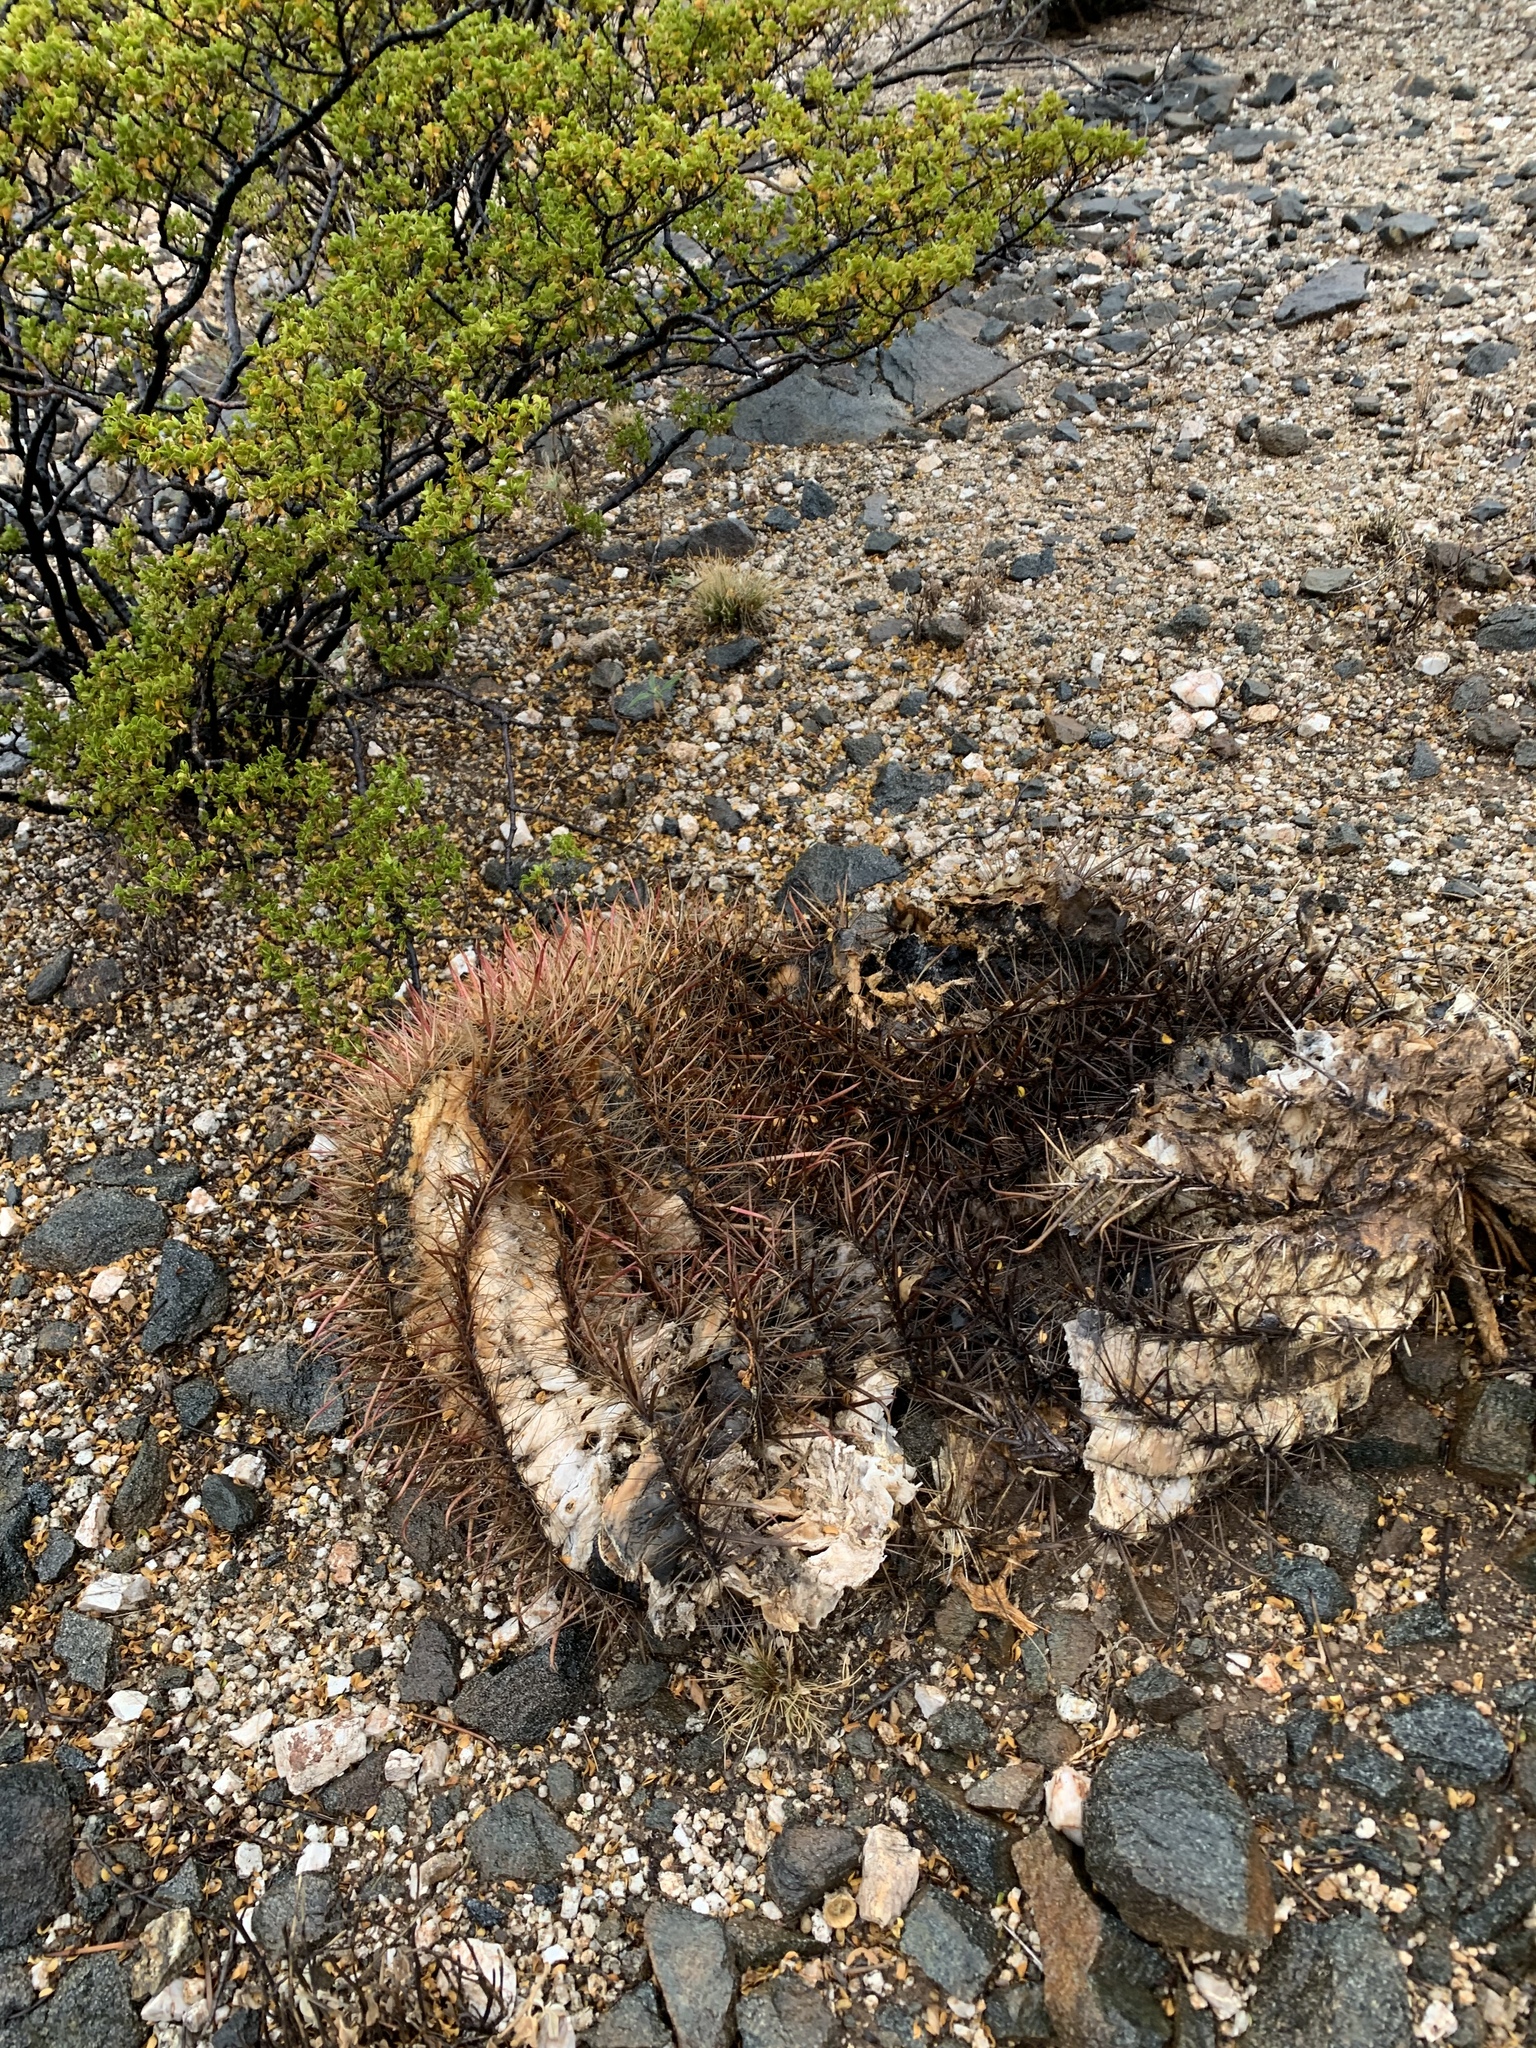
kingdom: Plantae
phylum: Tracheophyta
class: Magnoliopsida
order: Caryophyllales
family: Cactaceae
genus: Ferocactus
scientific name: Ferocactus wislizeni
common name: Candy barrel cactus
